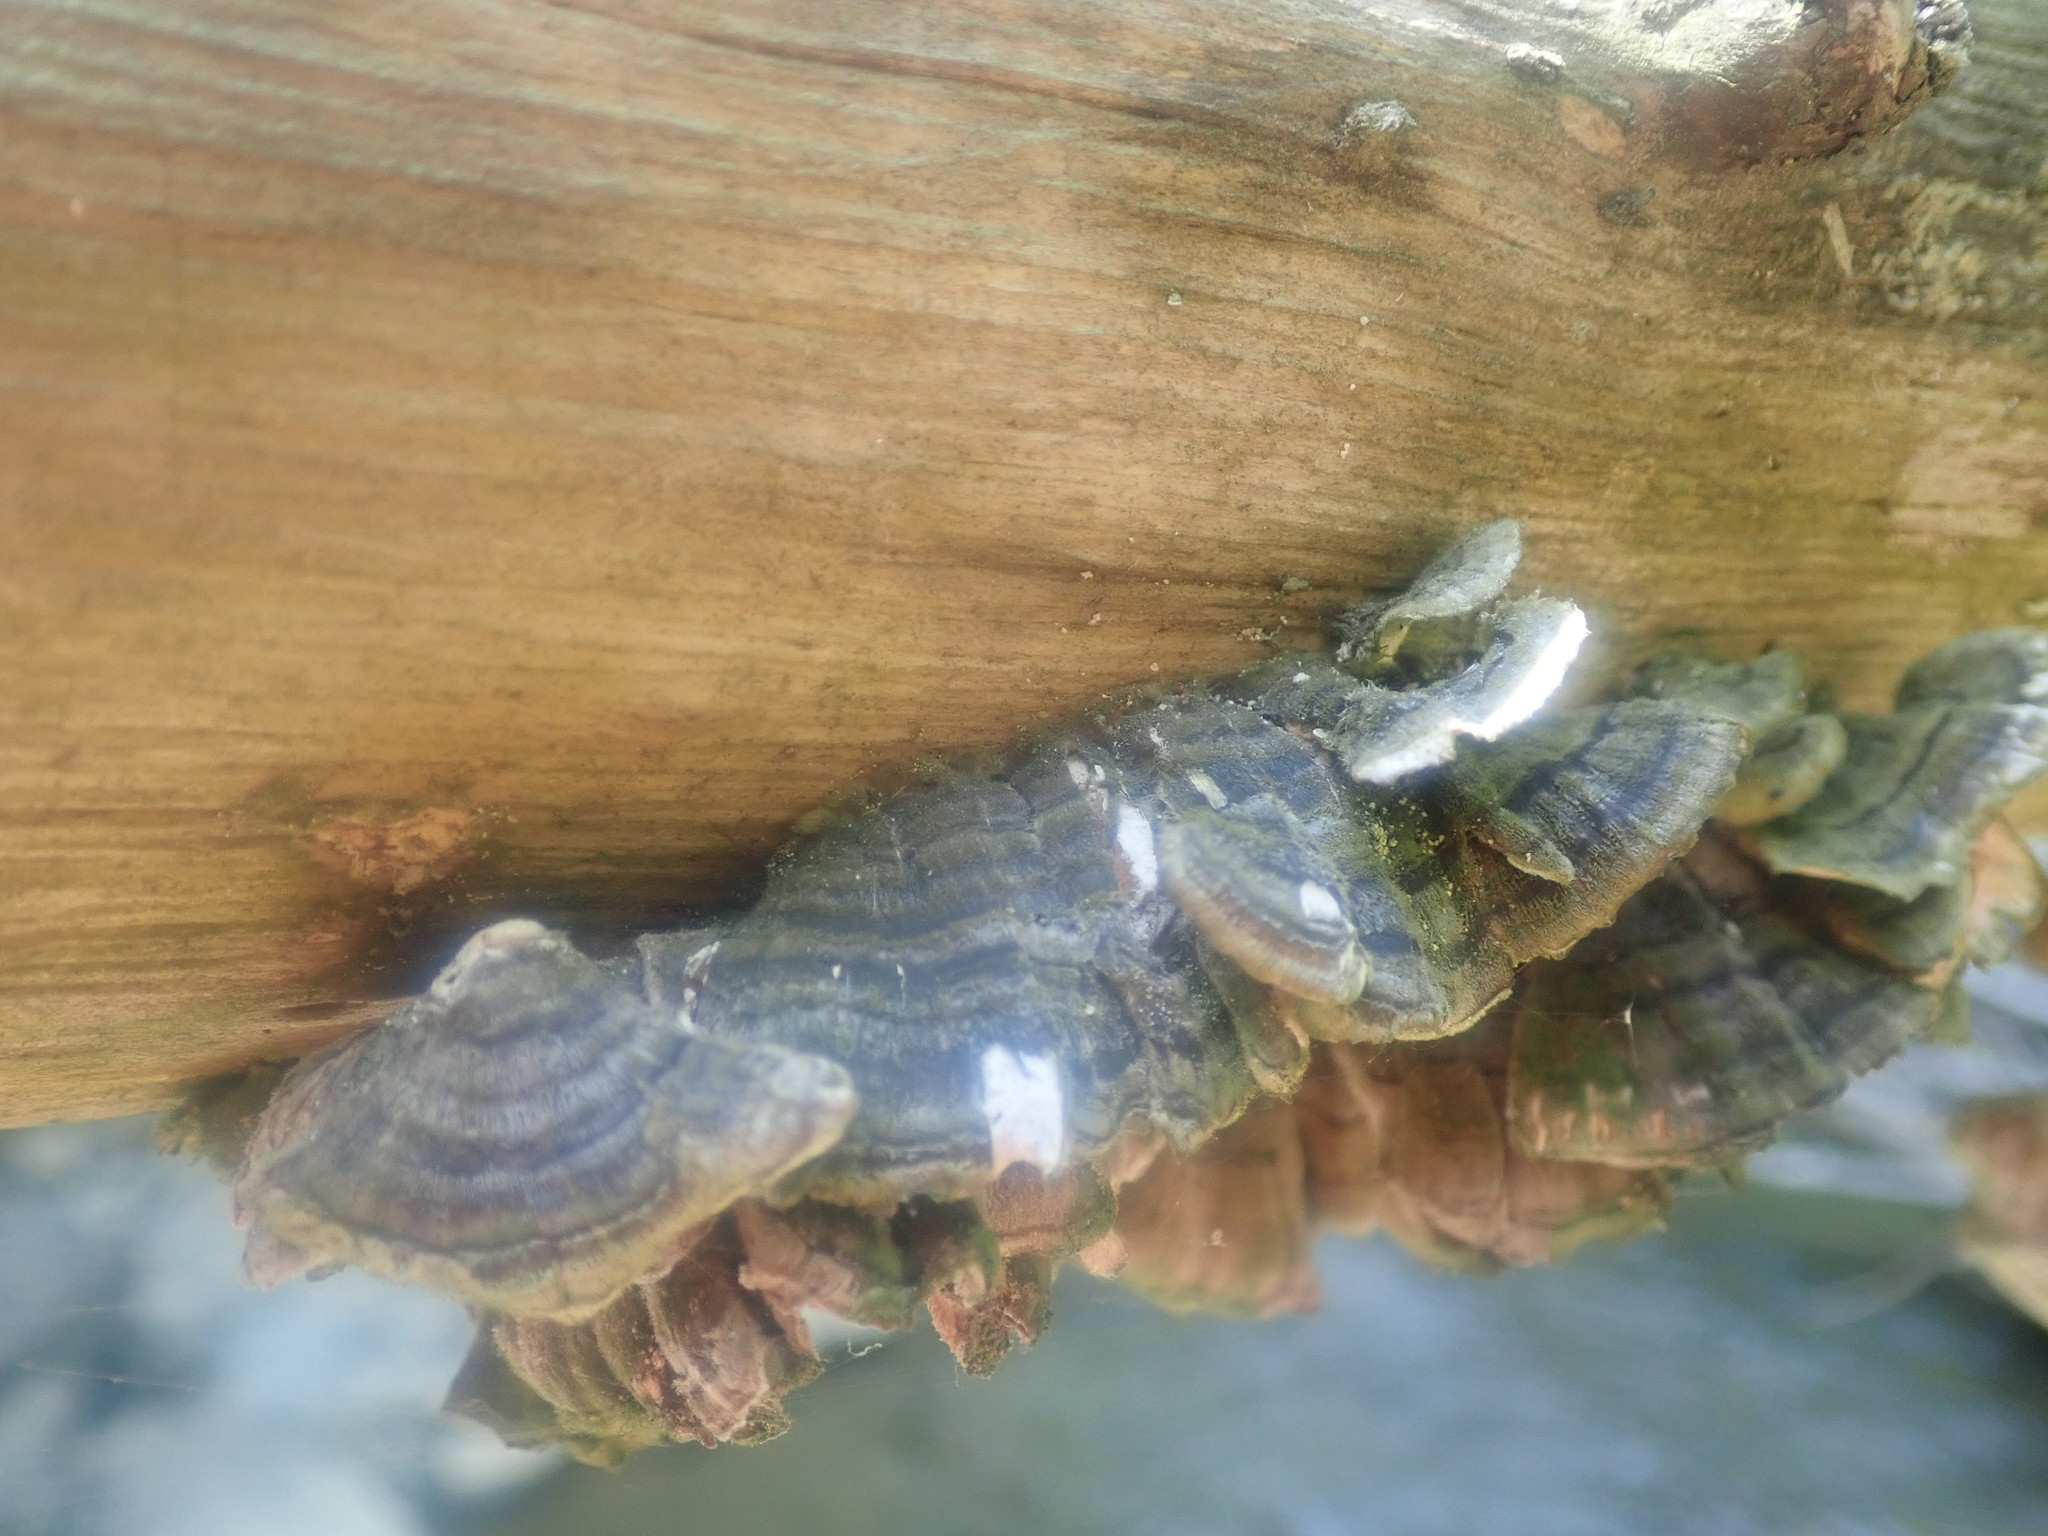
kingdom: Fungi
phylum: Basidiomycota
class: Agaricomycetes
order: Polyporales
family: Polyporaceae
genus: Trametes
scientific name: Trametes versicolor
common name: Turkeytail
